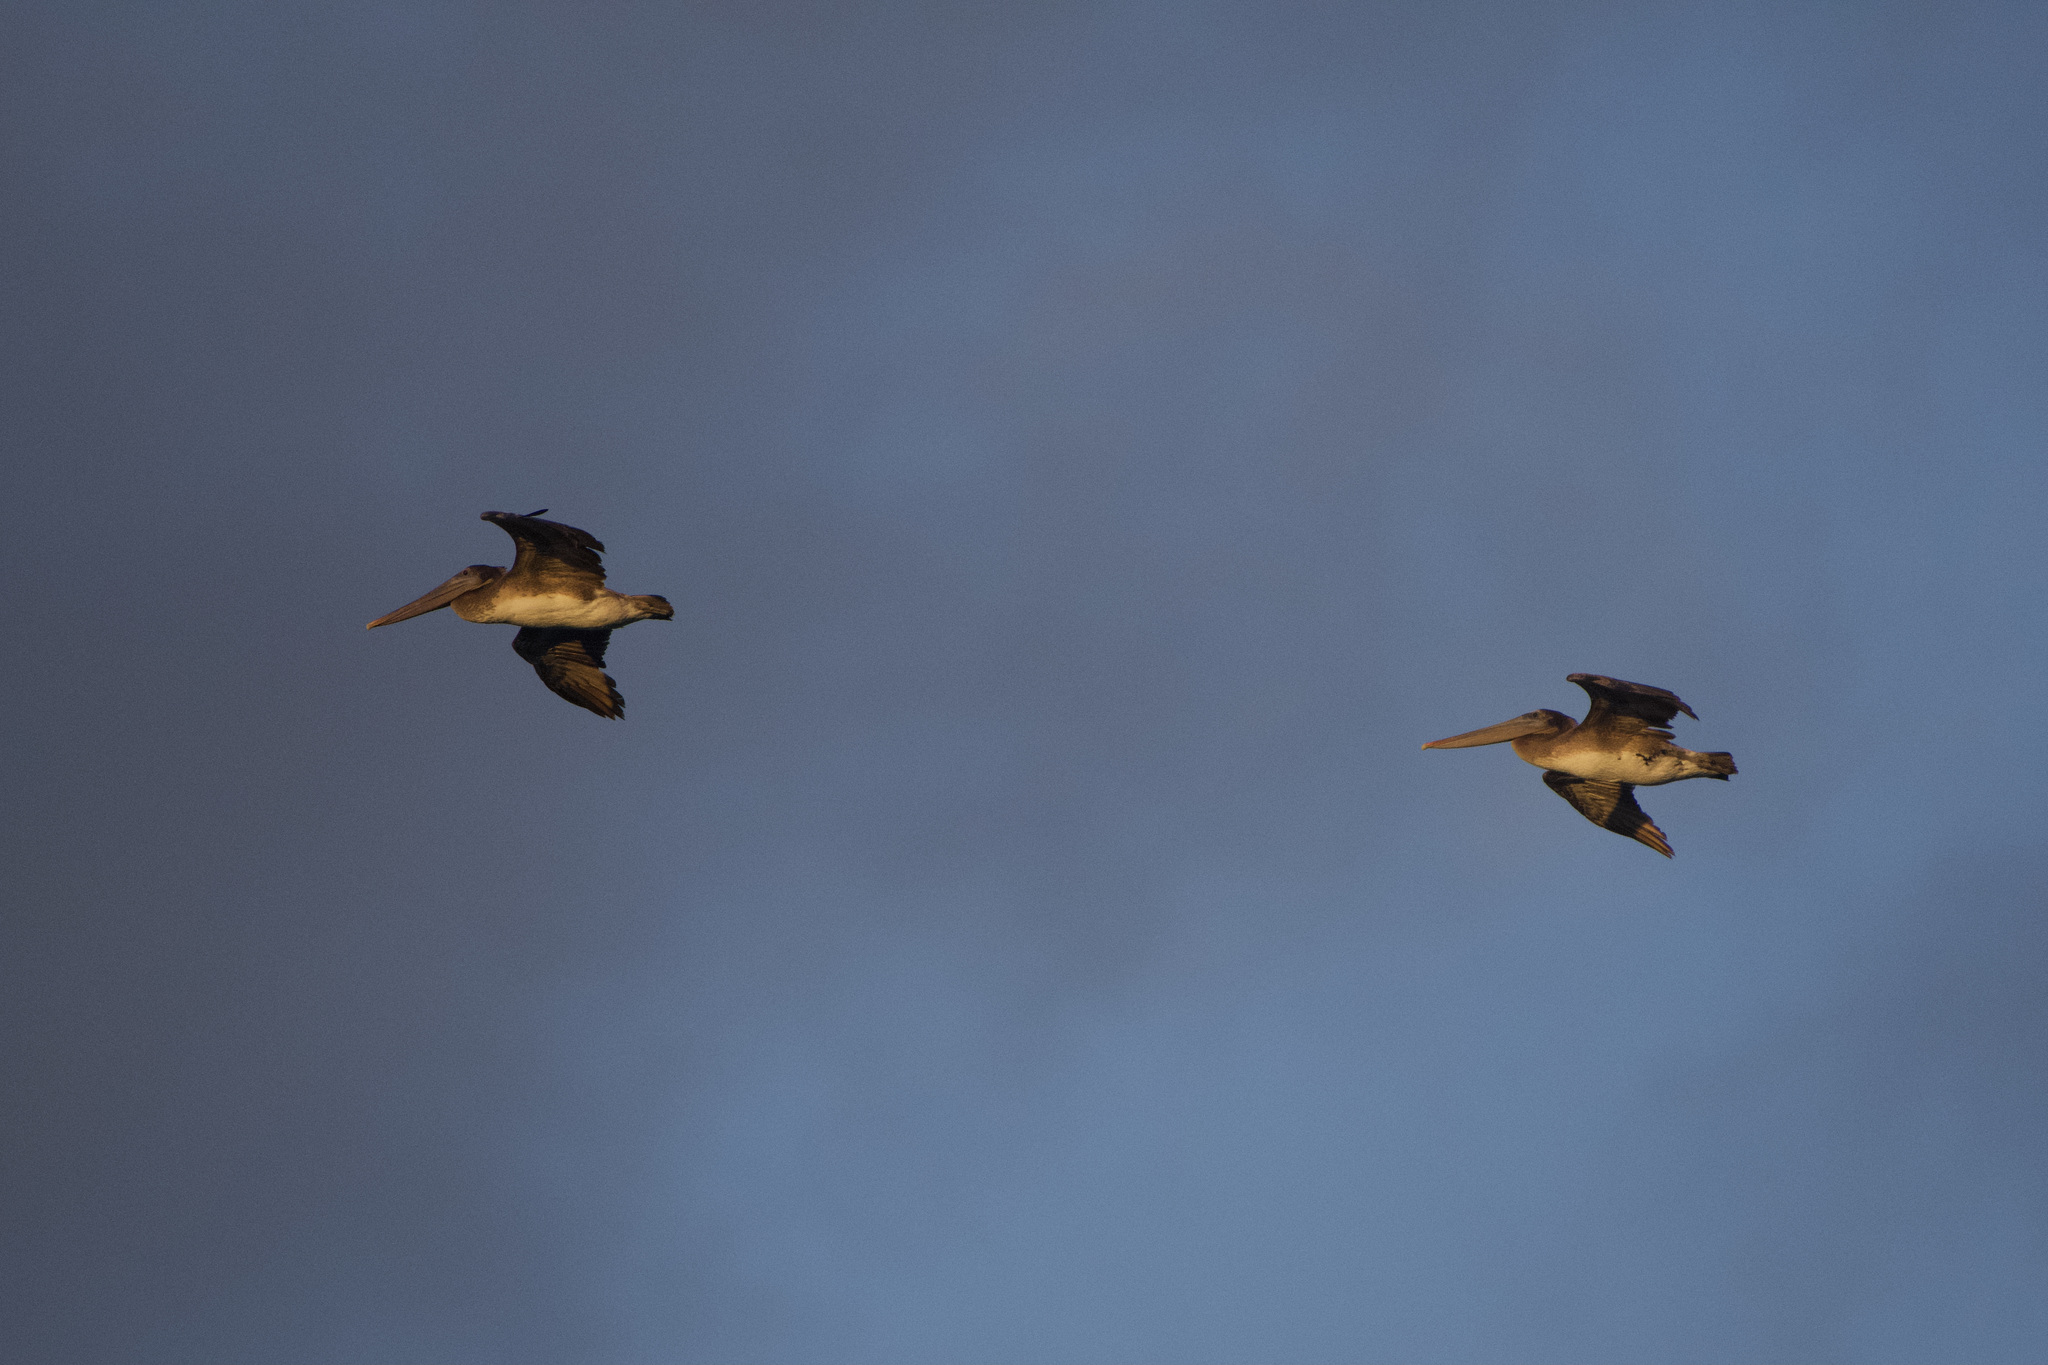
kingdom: Animalia
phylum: Chordata
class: Aves
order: Pelecaniformes
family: Pelecanidae
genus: Pelecanus
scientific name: Pelecanus occidentalis
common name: Brown pelican
